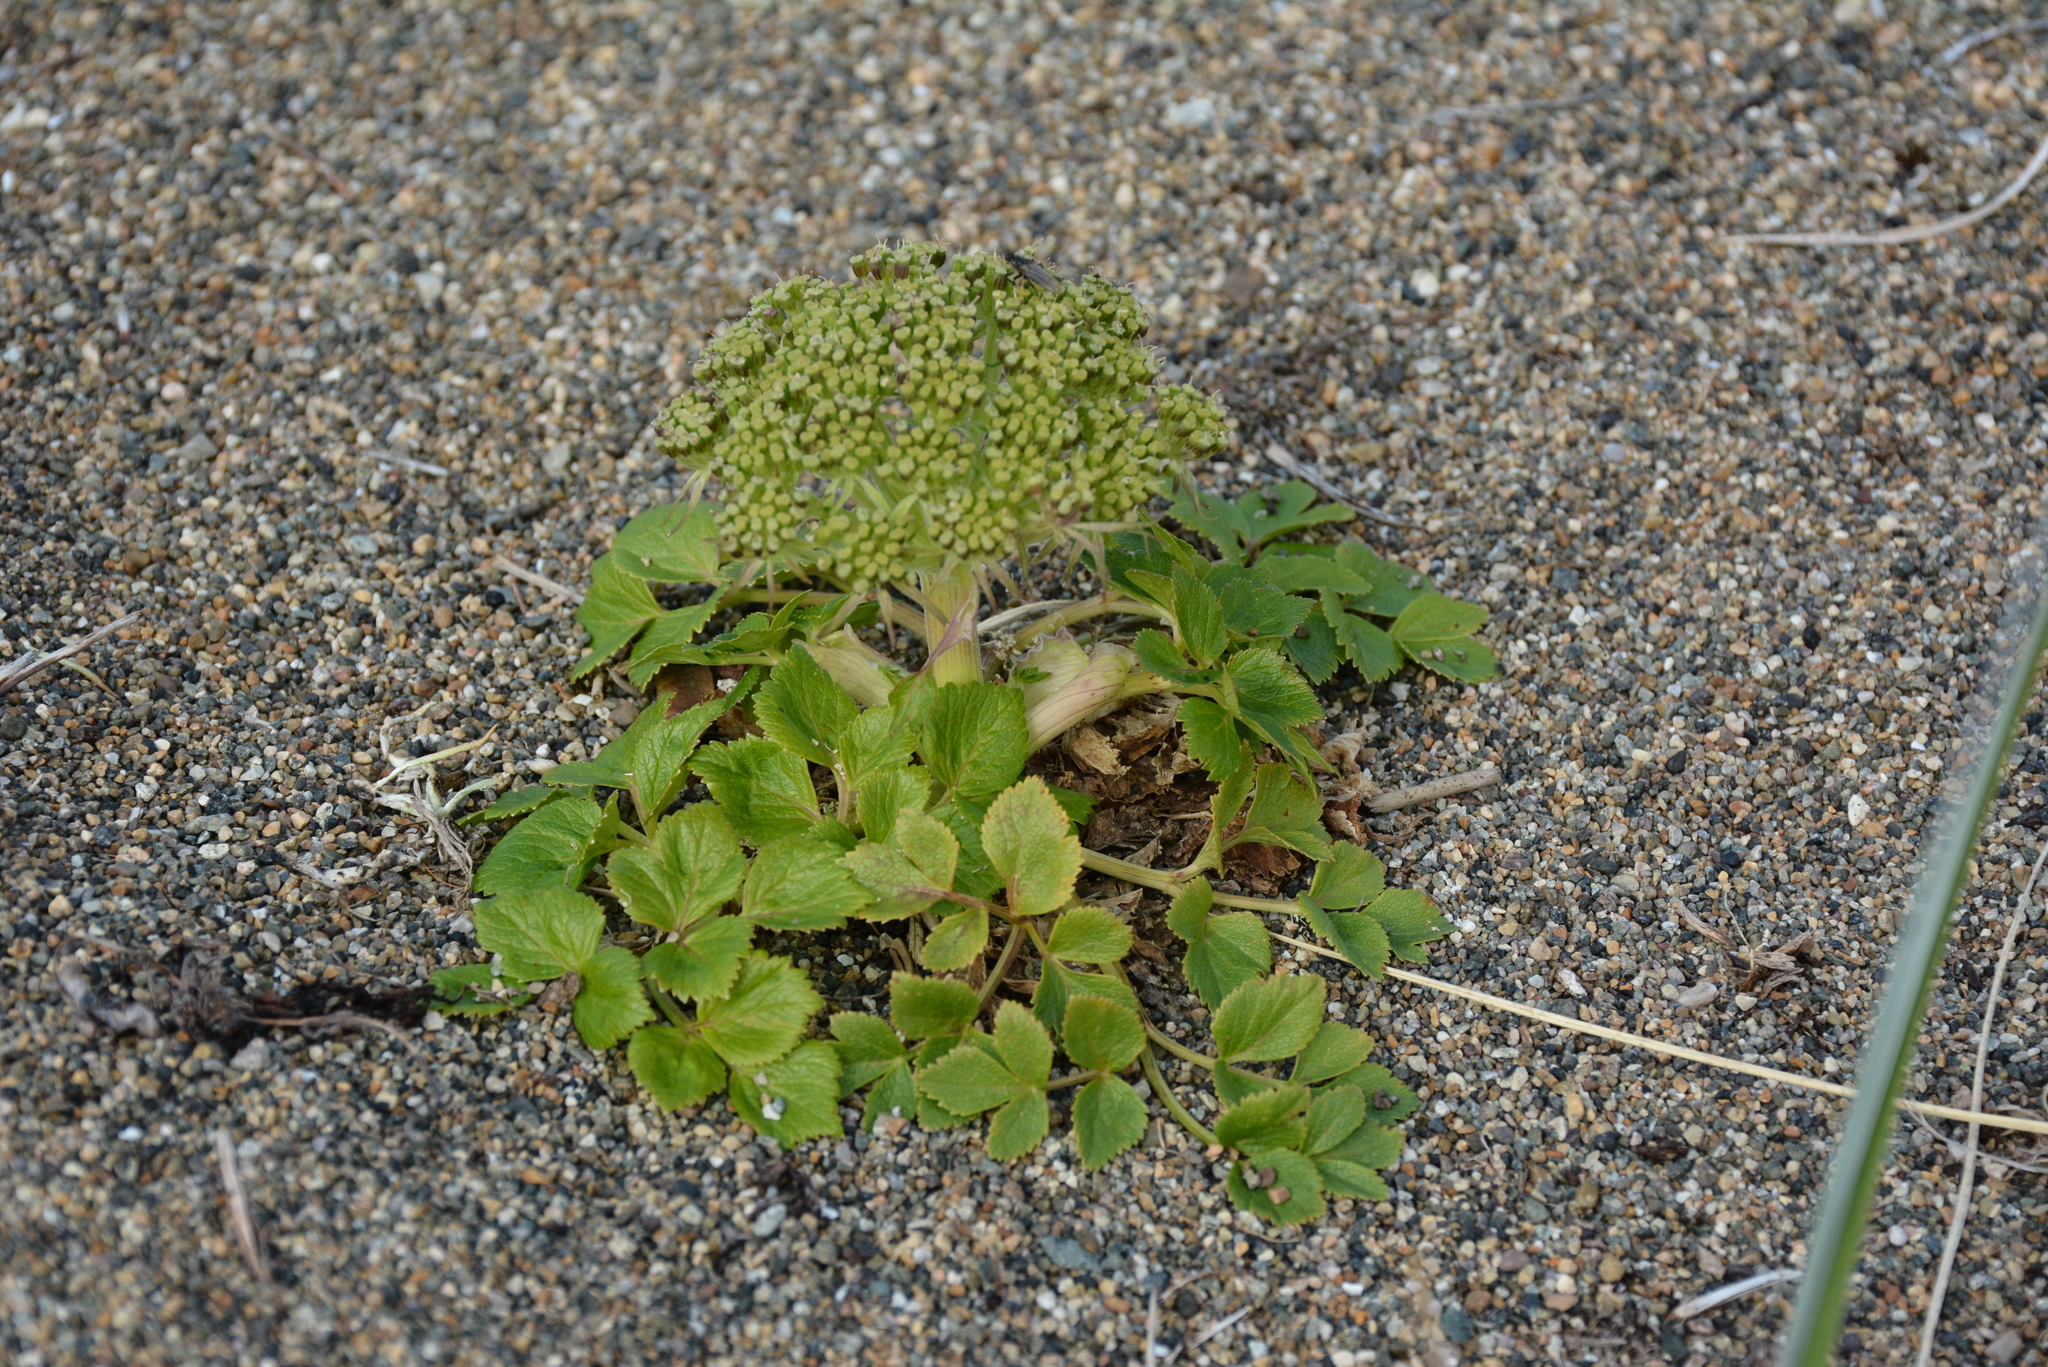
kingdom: Plantae
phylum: Tracheophyta
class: Magnoliopsida
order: Apiales
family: Apiaceae
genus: Angelica
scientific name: Angelica gmelinii
